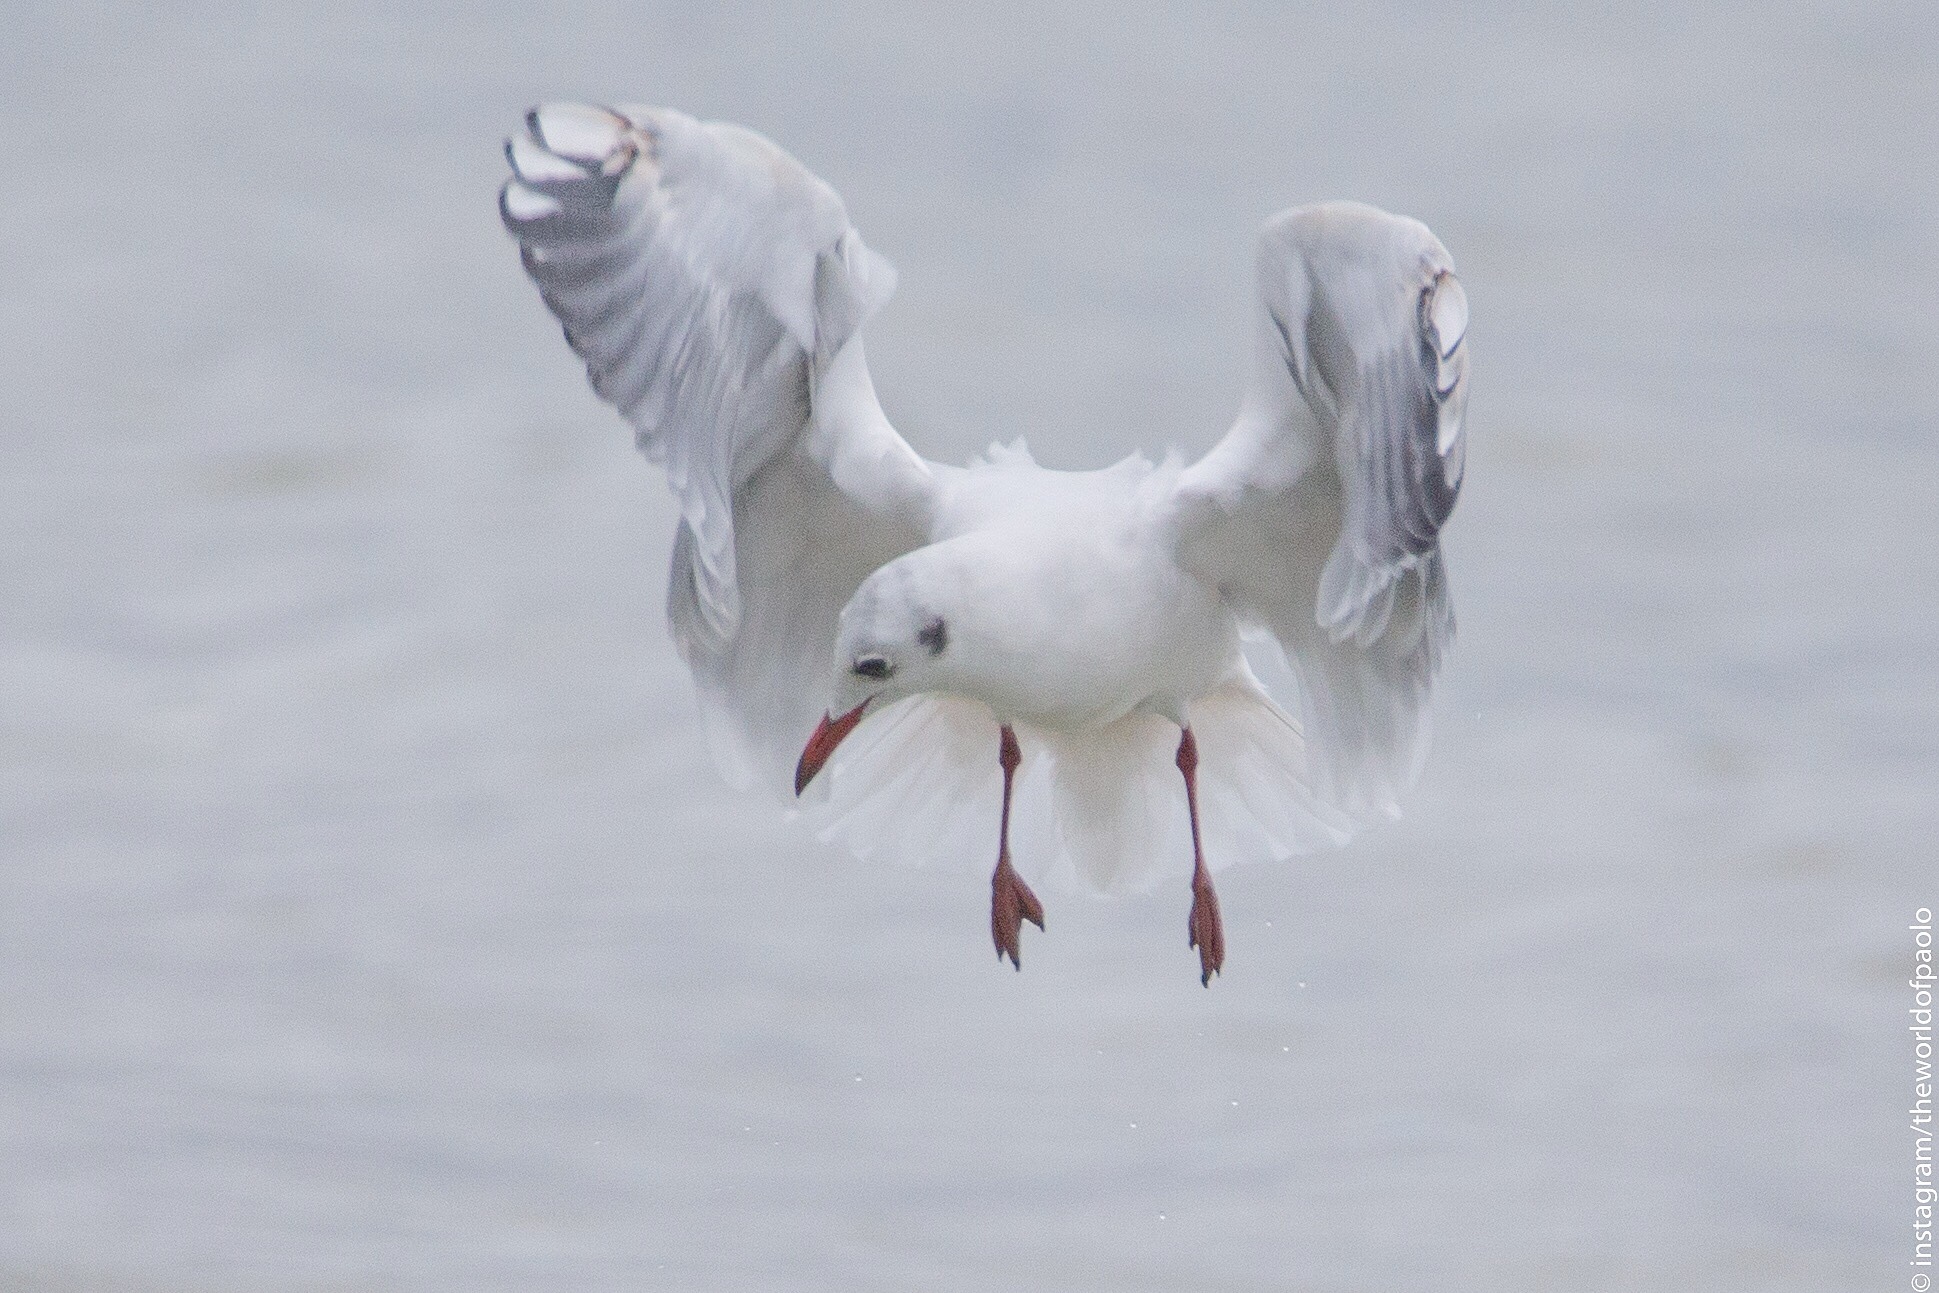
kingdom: Animalia
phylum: Chordata
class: Aves
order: Charadriiformes
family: Laridae
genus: Chroicocephalus
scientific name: Chroicocephalus ridibundus
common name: Black-headed gull
